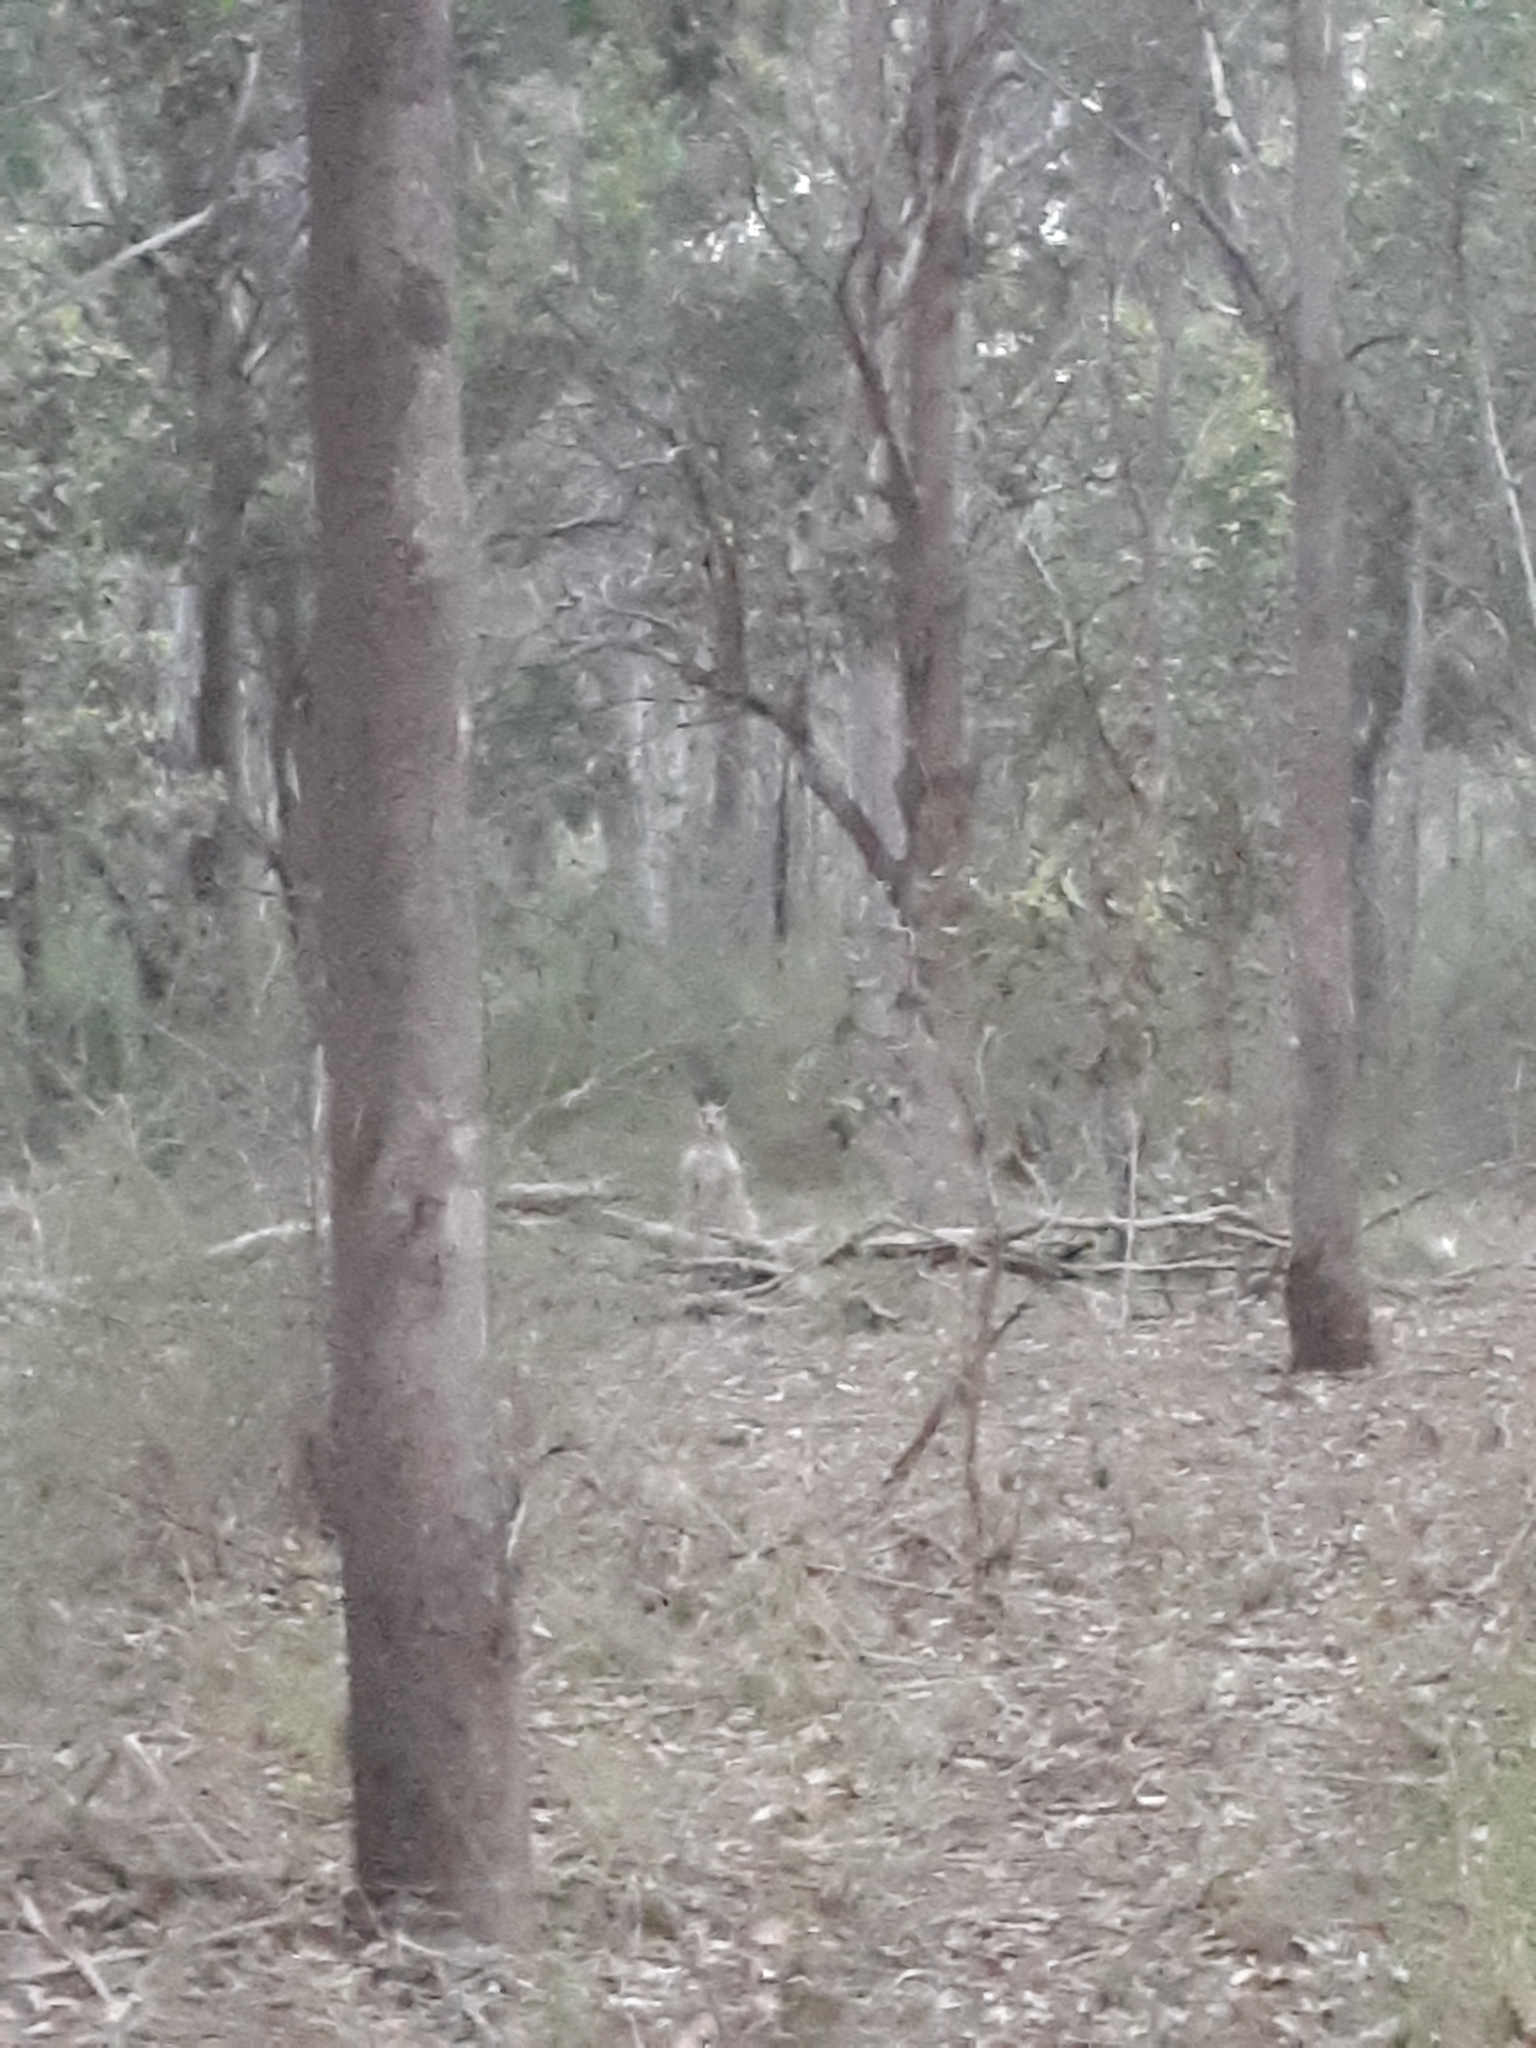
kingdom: Animalia
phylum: Chordata
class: Mammalia
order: Diprotodontia
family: Macropodidae
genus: Macropus
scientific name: Macropus giganteus
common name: Eastern grey kangaroo
